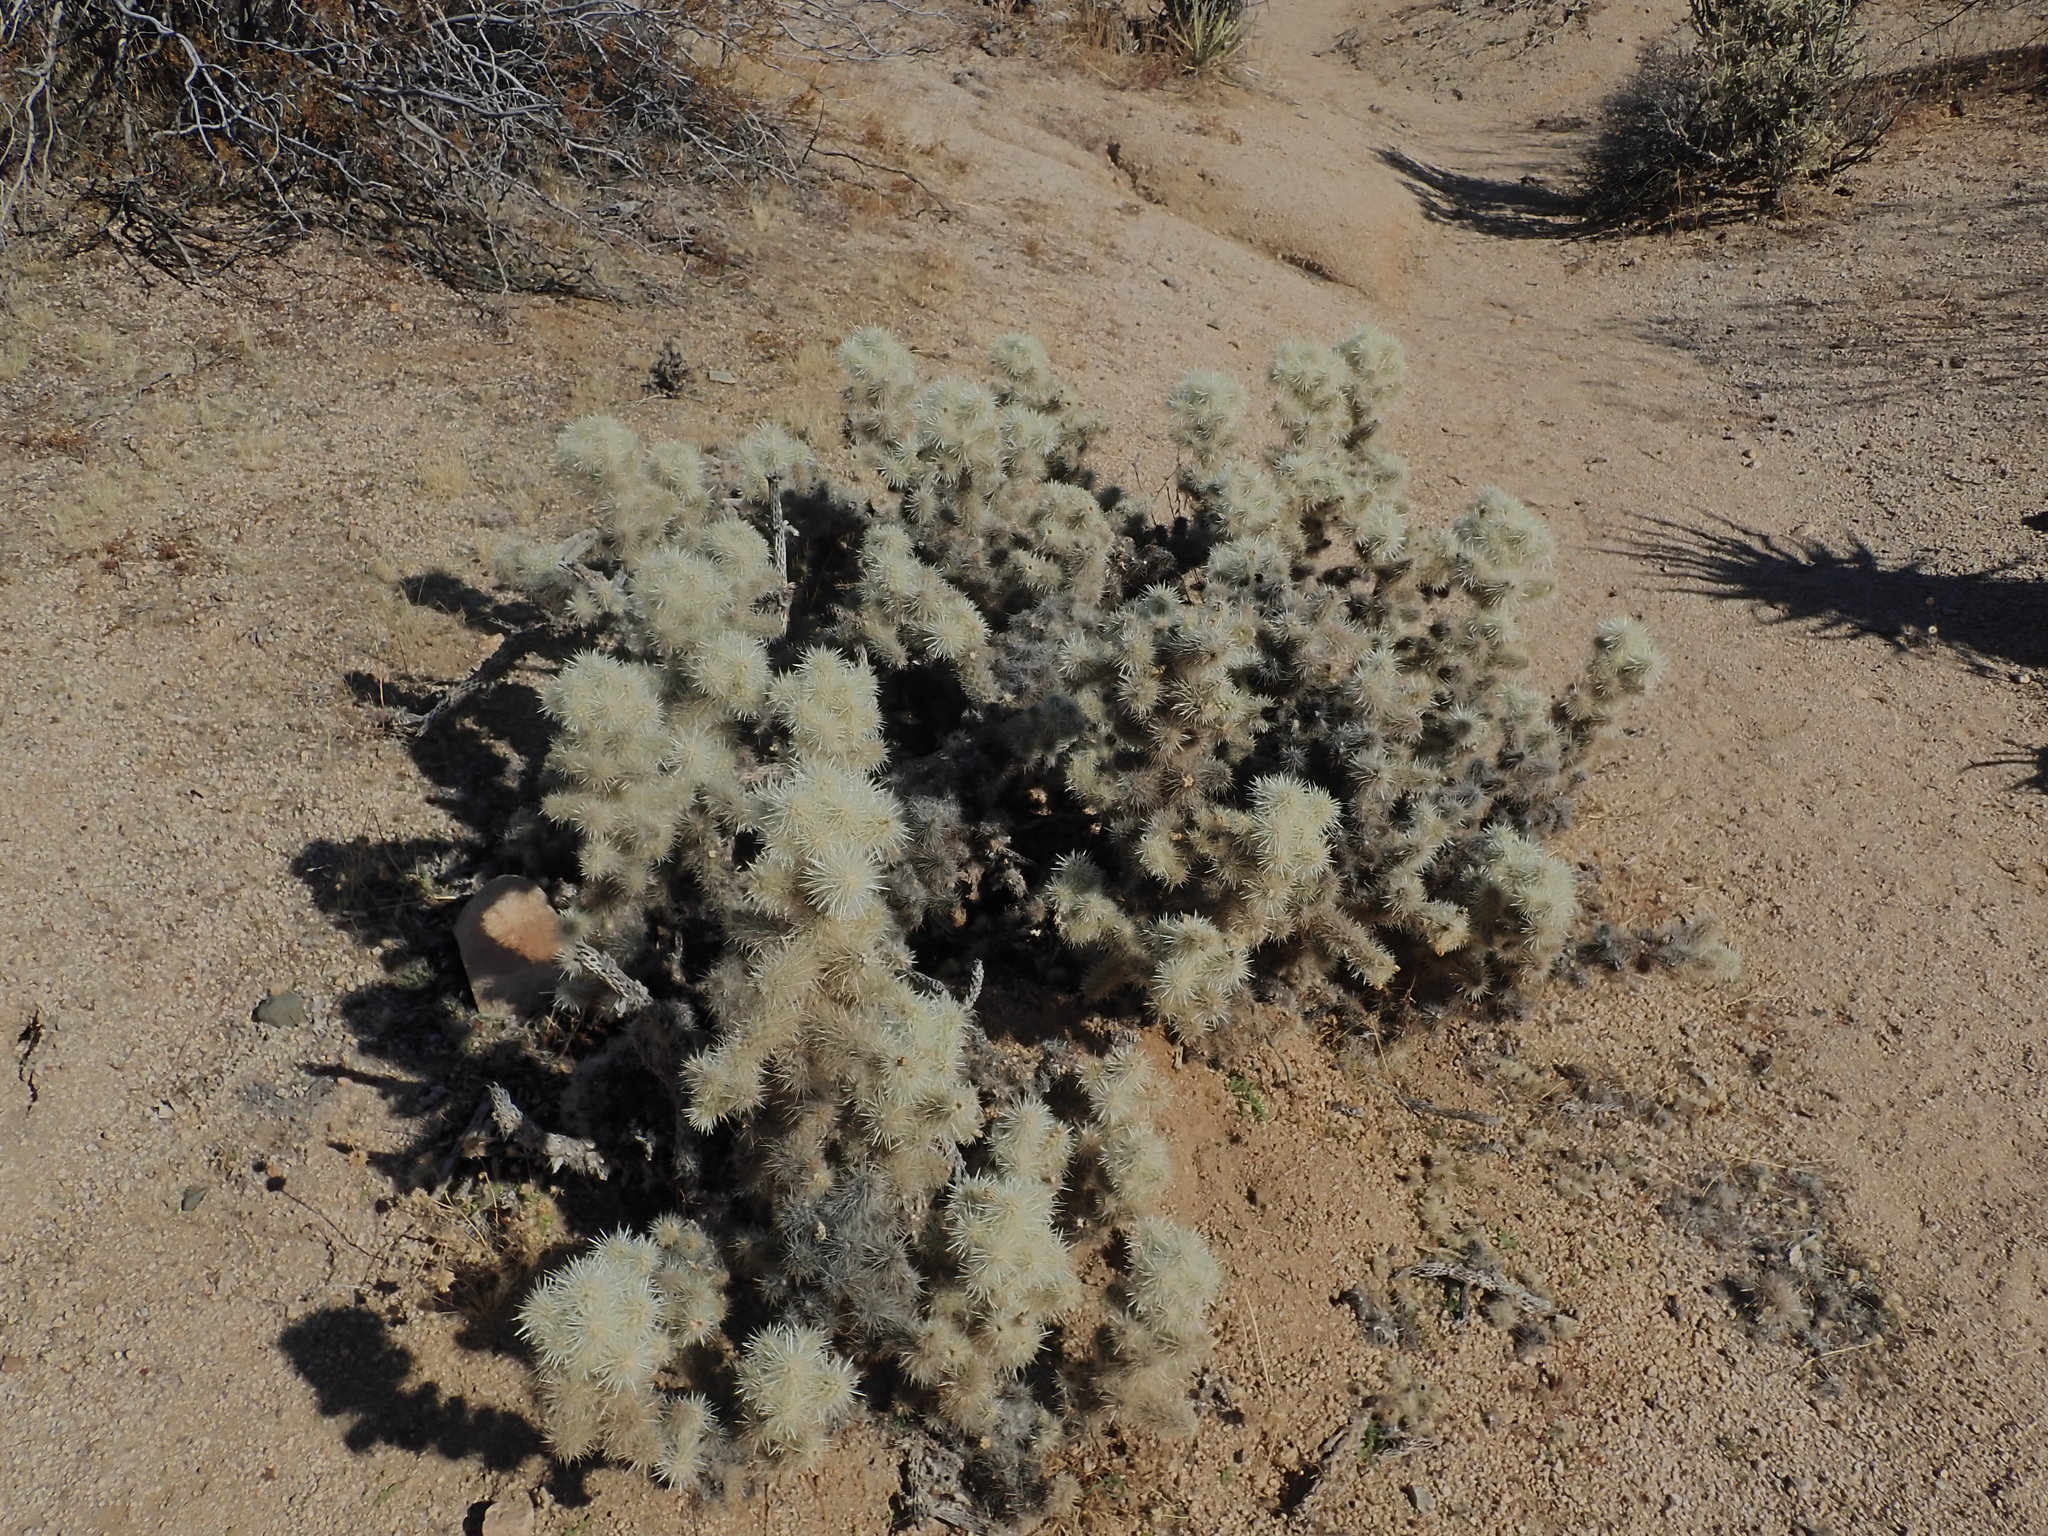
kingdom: Plantae
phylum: Tracheophyta
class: Magnoliopsida
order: Caryophyllales
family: Cactaceae
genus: Cylindropuntia
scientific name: Cylindropuntia chuckwallensis
